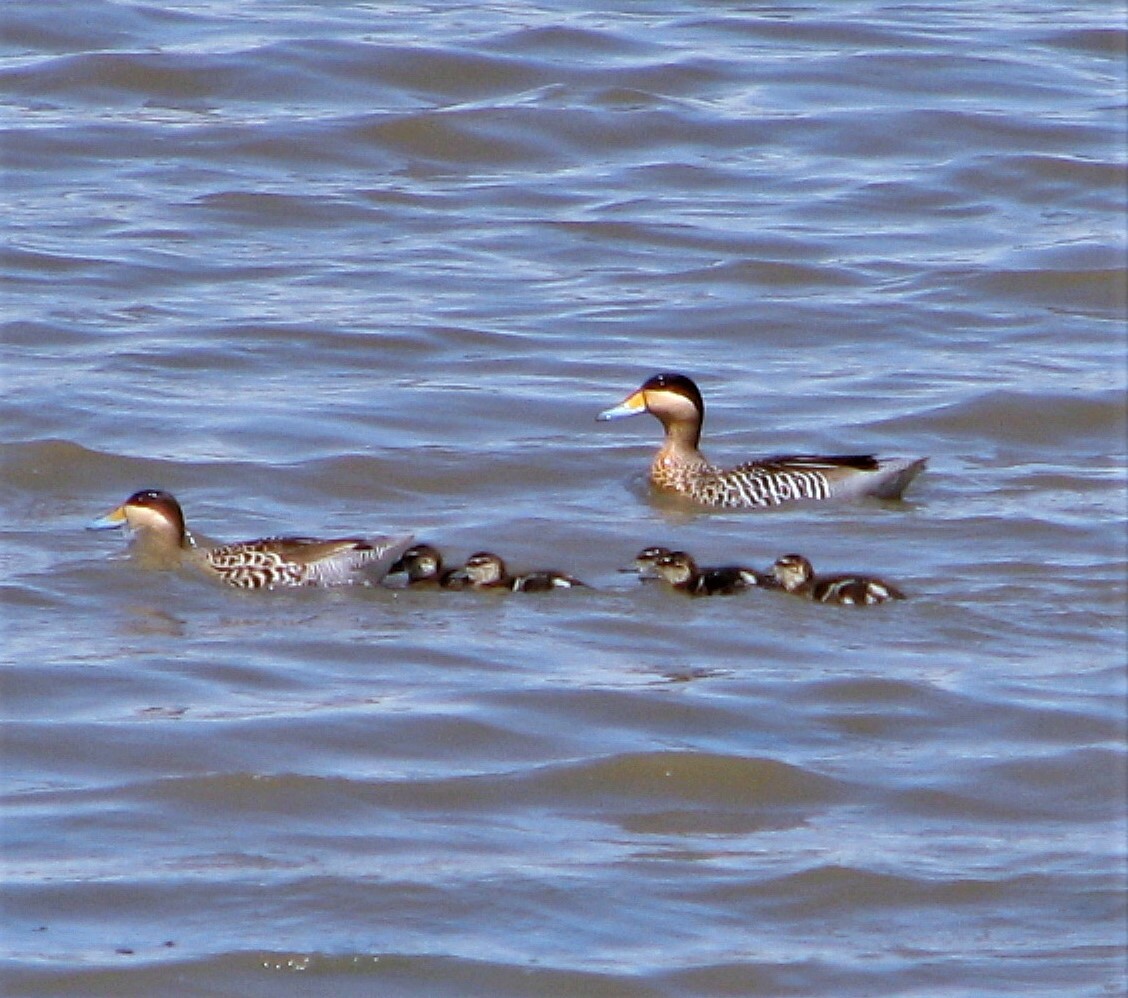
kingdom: Animalia
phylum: Chordata
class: Aves
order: Anseriformes
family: Anatidae
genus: Spatula
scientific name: Spatula versicolor
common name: Silver teal
